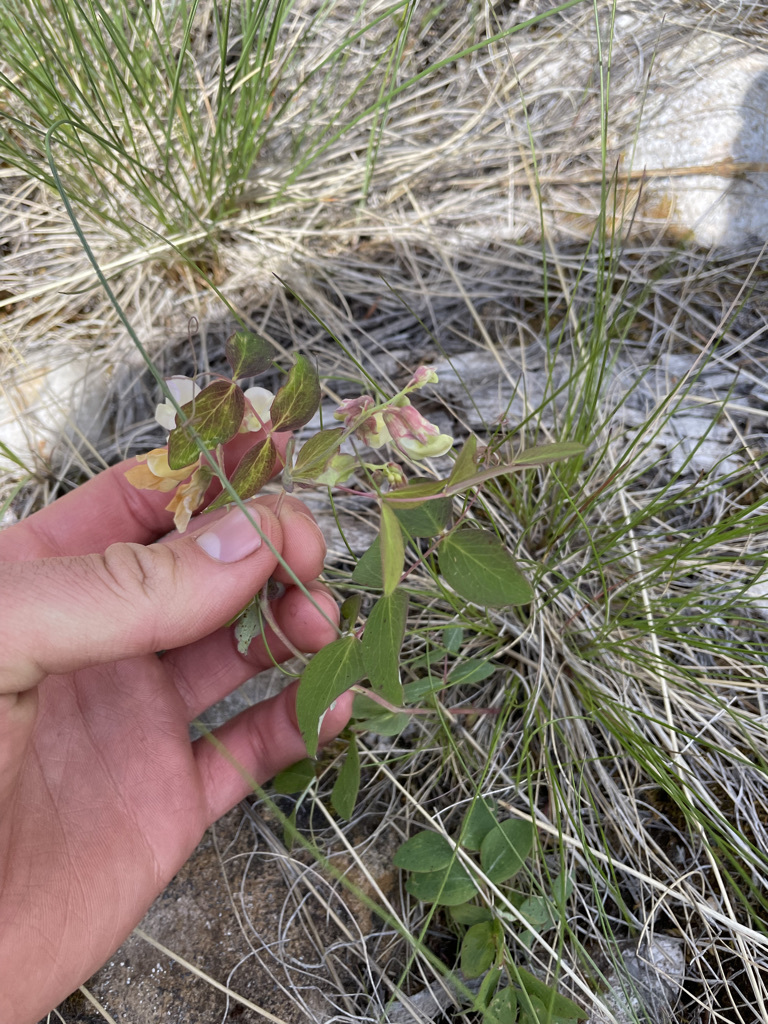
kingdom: Plantae
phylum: Tracheophyta
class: Magnoliopsida
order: Fabales
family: Fabaceae
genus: Lathyrus
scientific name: Lathyrus ochroleucus
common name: Pale vetchling
